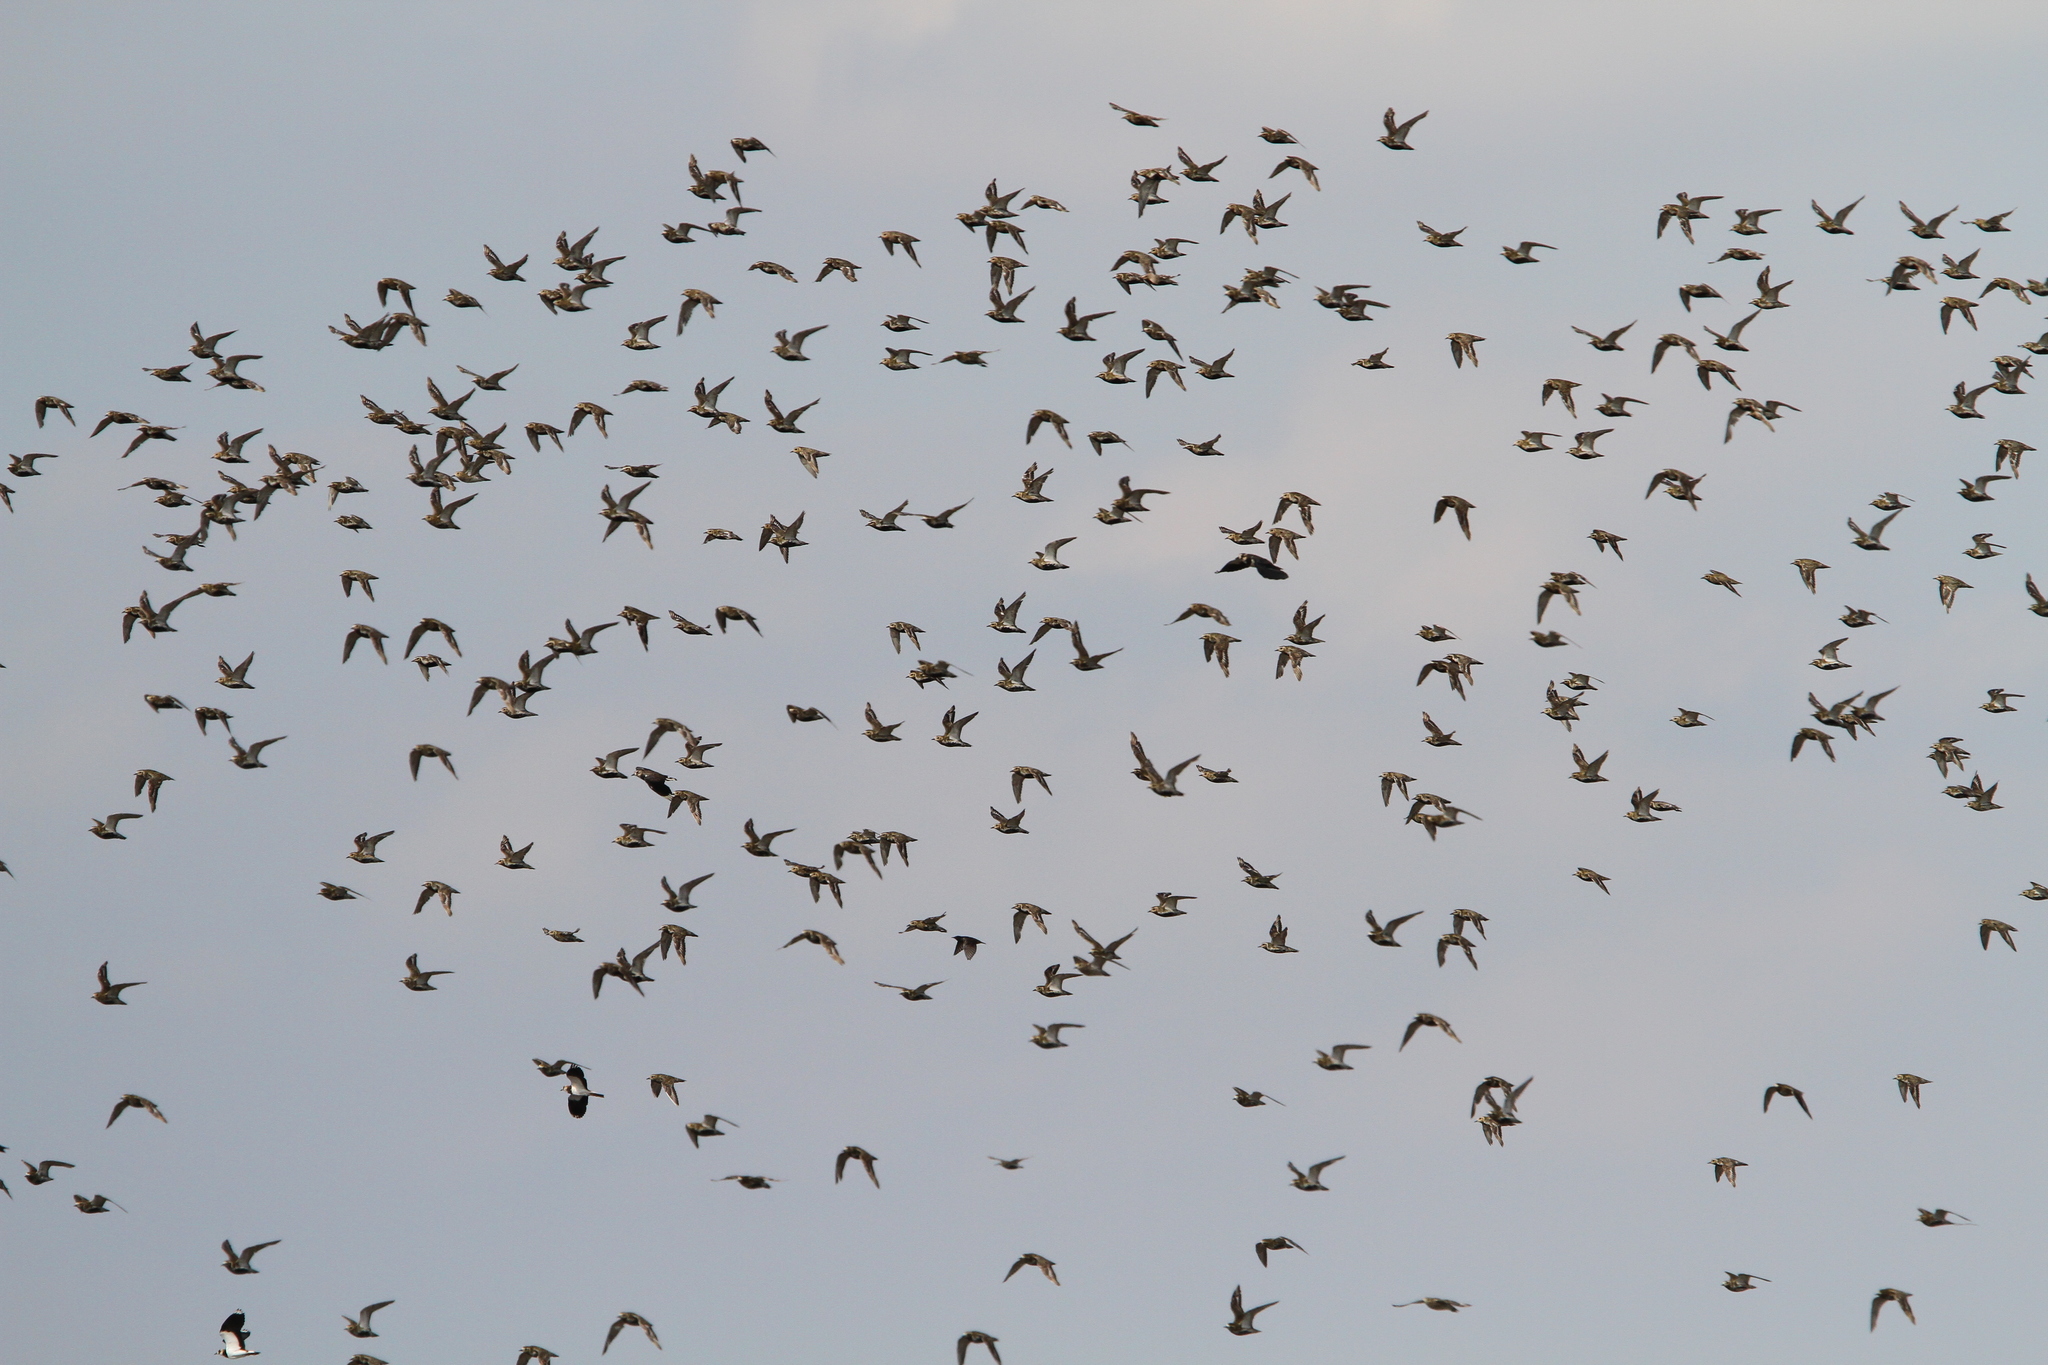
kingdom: Animalia
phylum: Chordata
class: Aves
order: Charadriiformes
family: Charadriidae
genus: Pluvialis
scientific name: Pluvialis apricaria
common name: European golden plover
